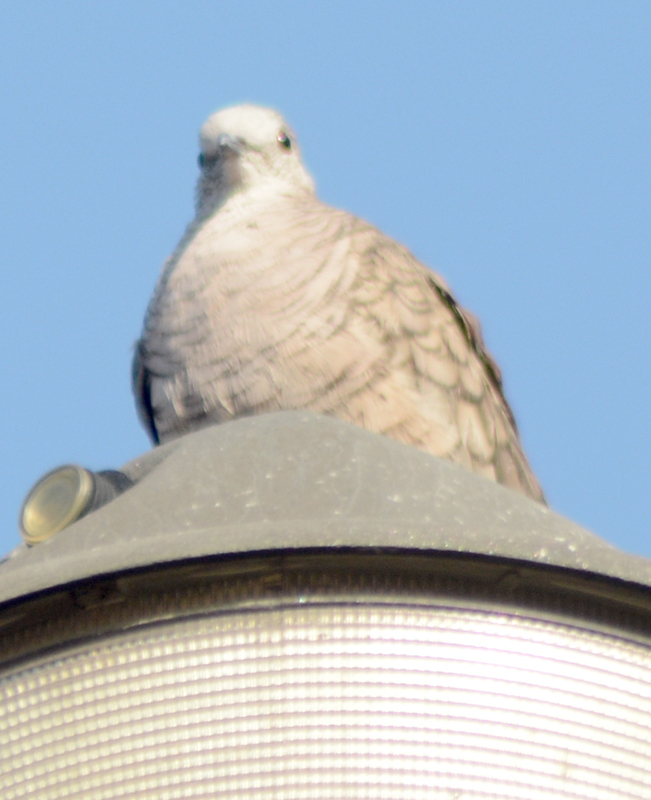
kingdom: Animalia
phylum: Chordata
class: Aves
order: Columbiformes
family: Columbidae
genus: Columbina
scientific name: Columbina inca
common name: Inca dove
